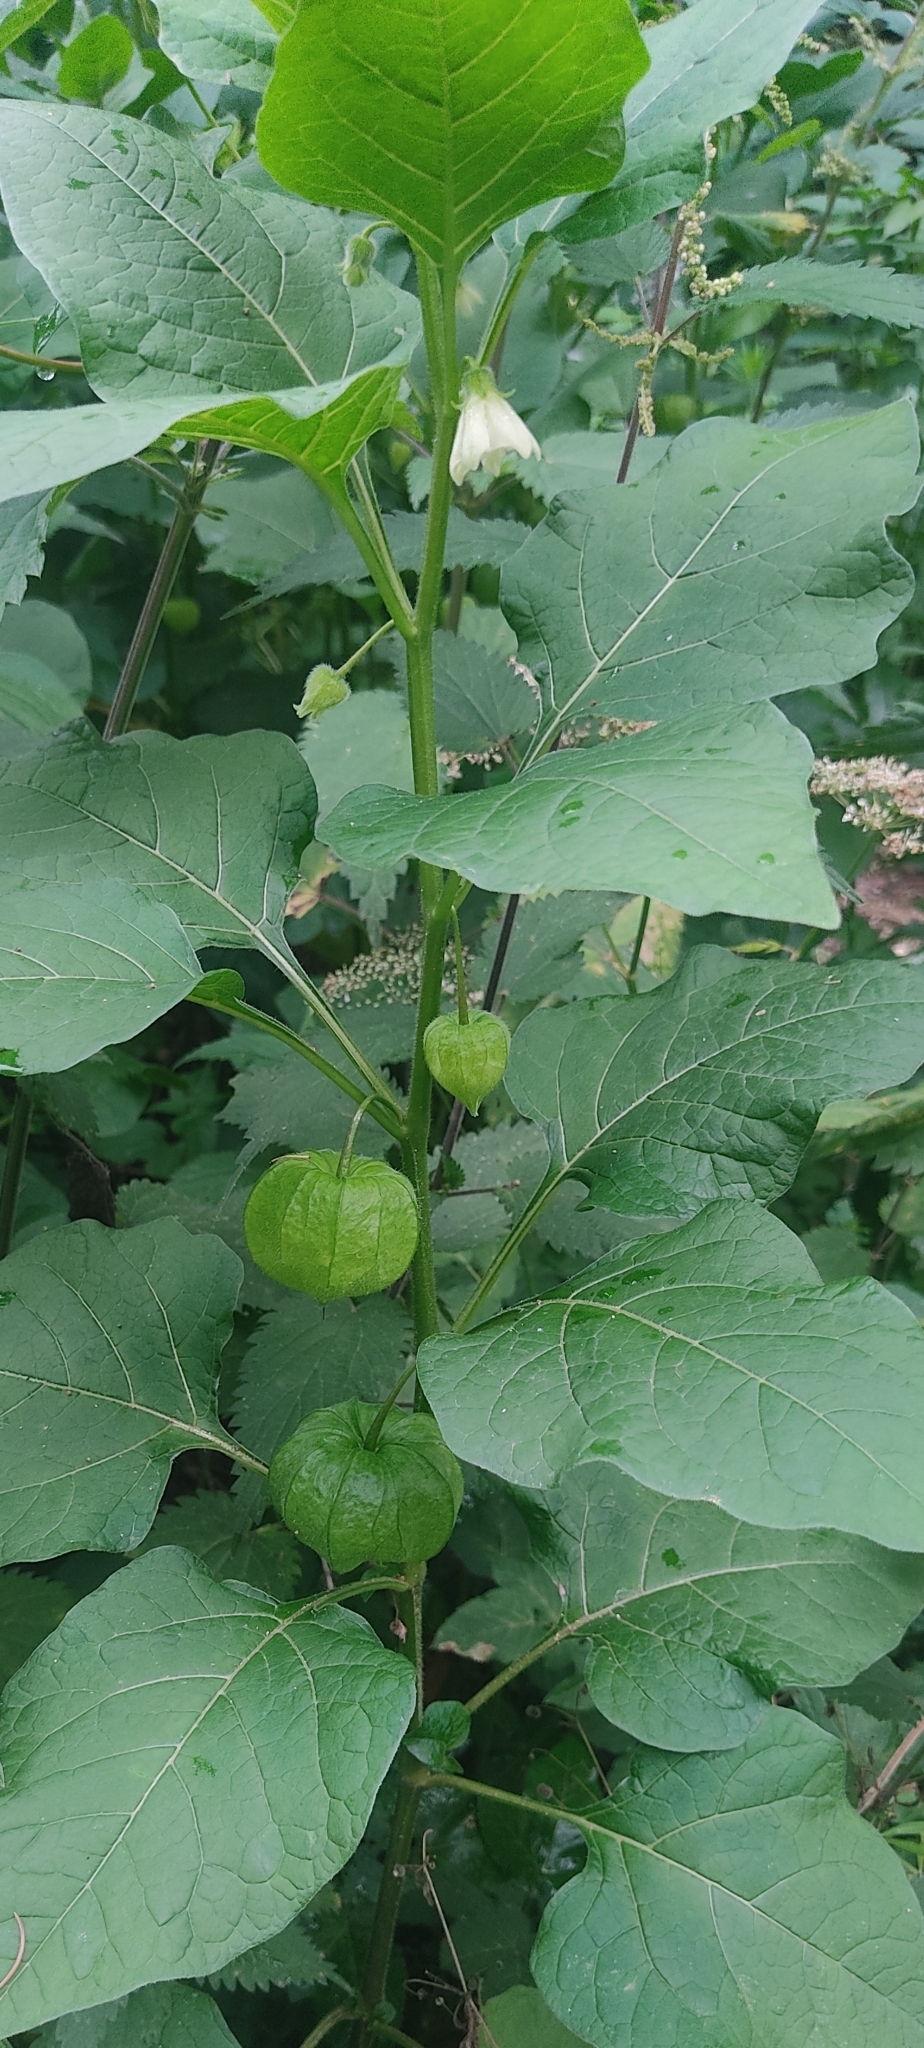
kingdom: Plantae
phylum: Tracheophyta
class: Magnoliopsida
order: Solanales
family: Solanaceae
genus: Alkekengi
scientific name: Alkekengi officinarum
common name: Japanese-lantern
